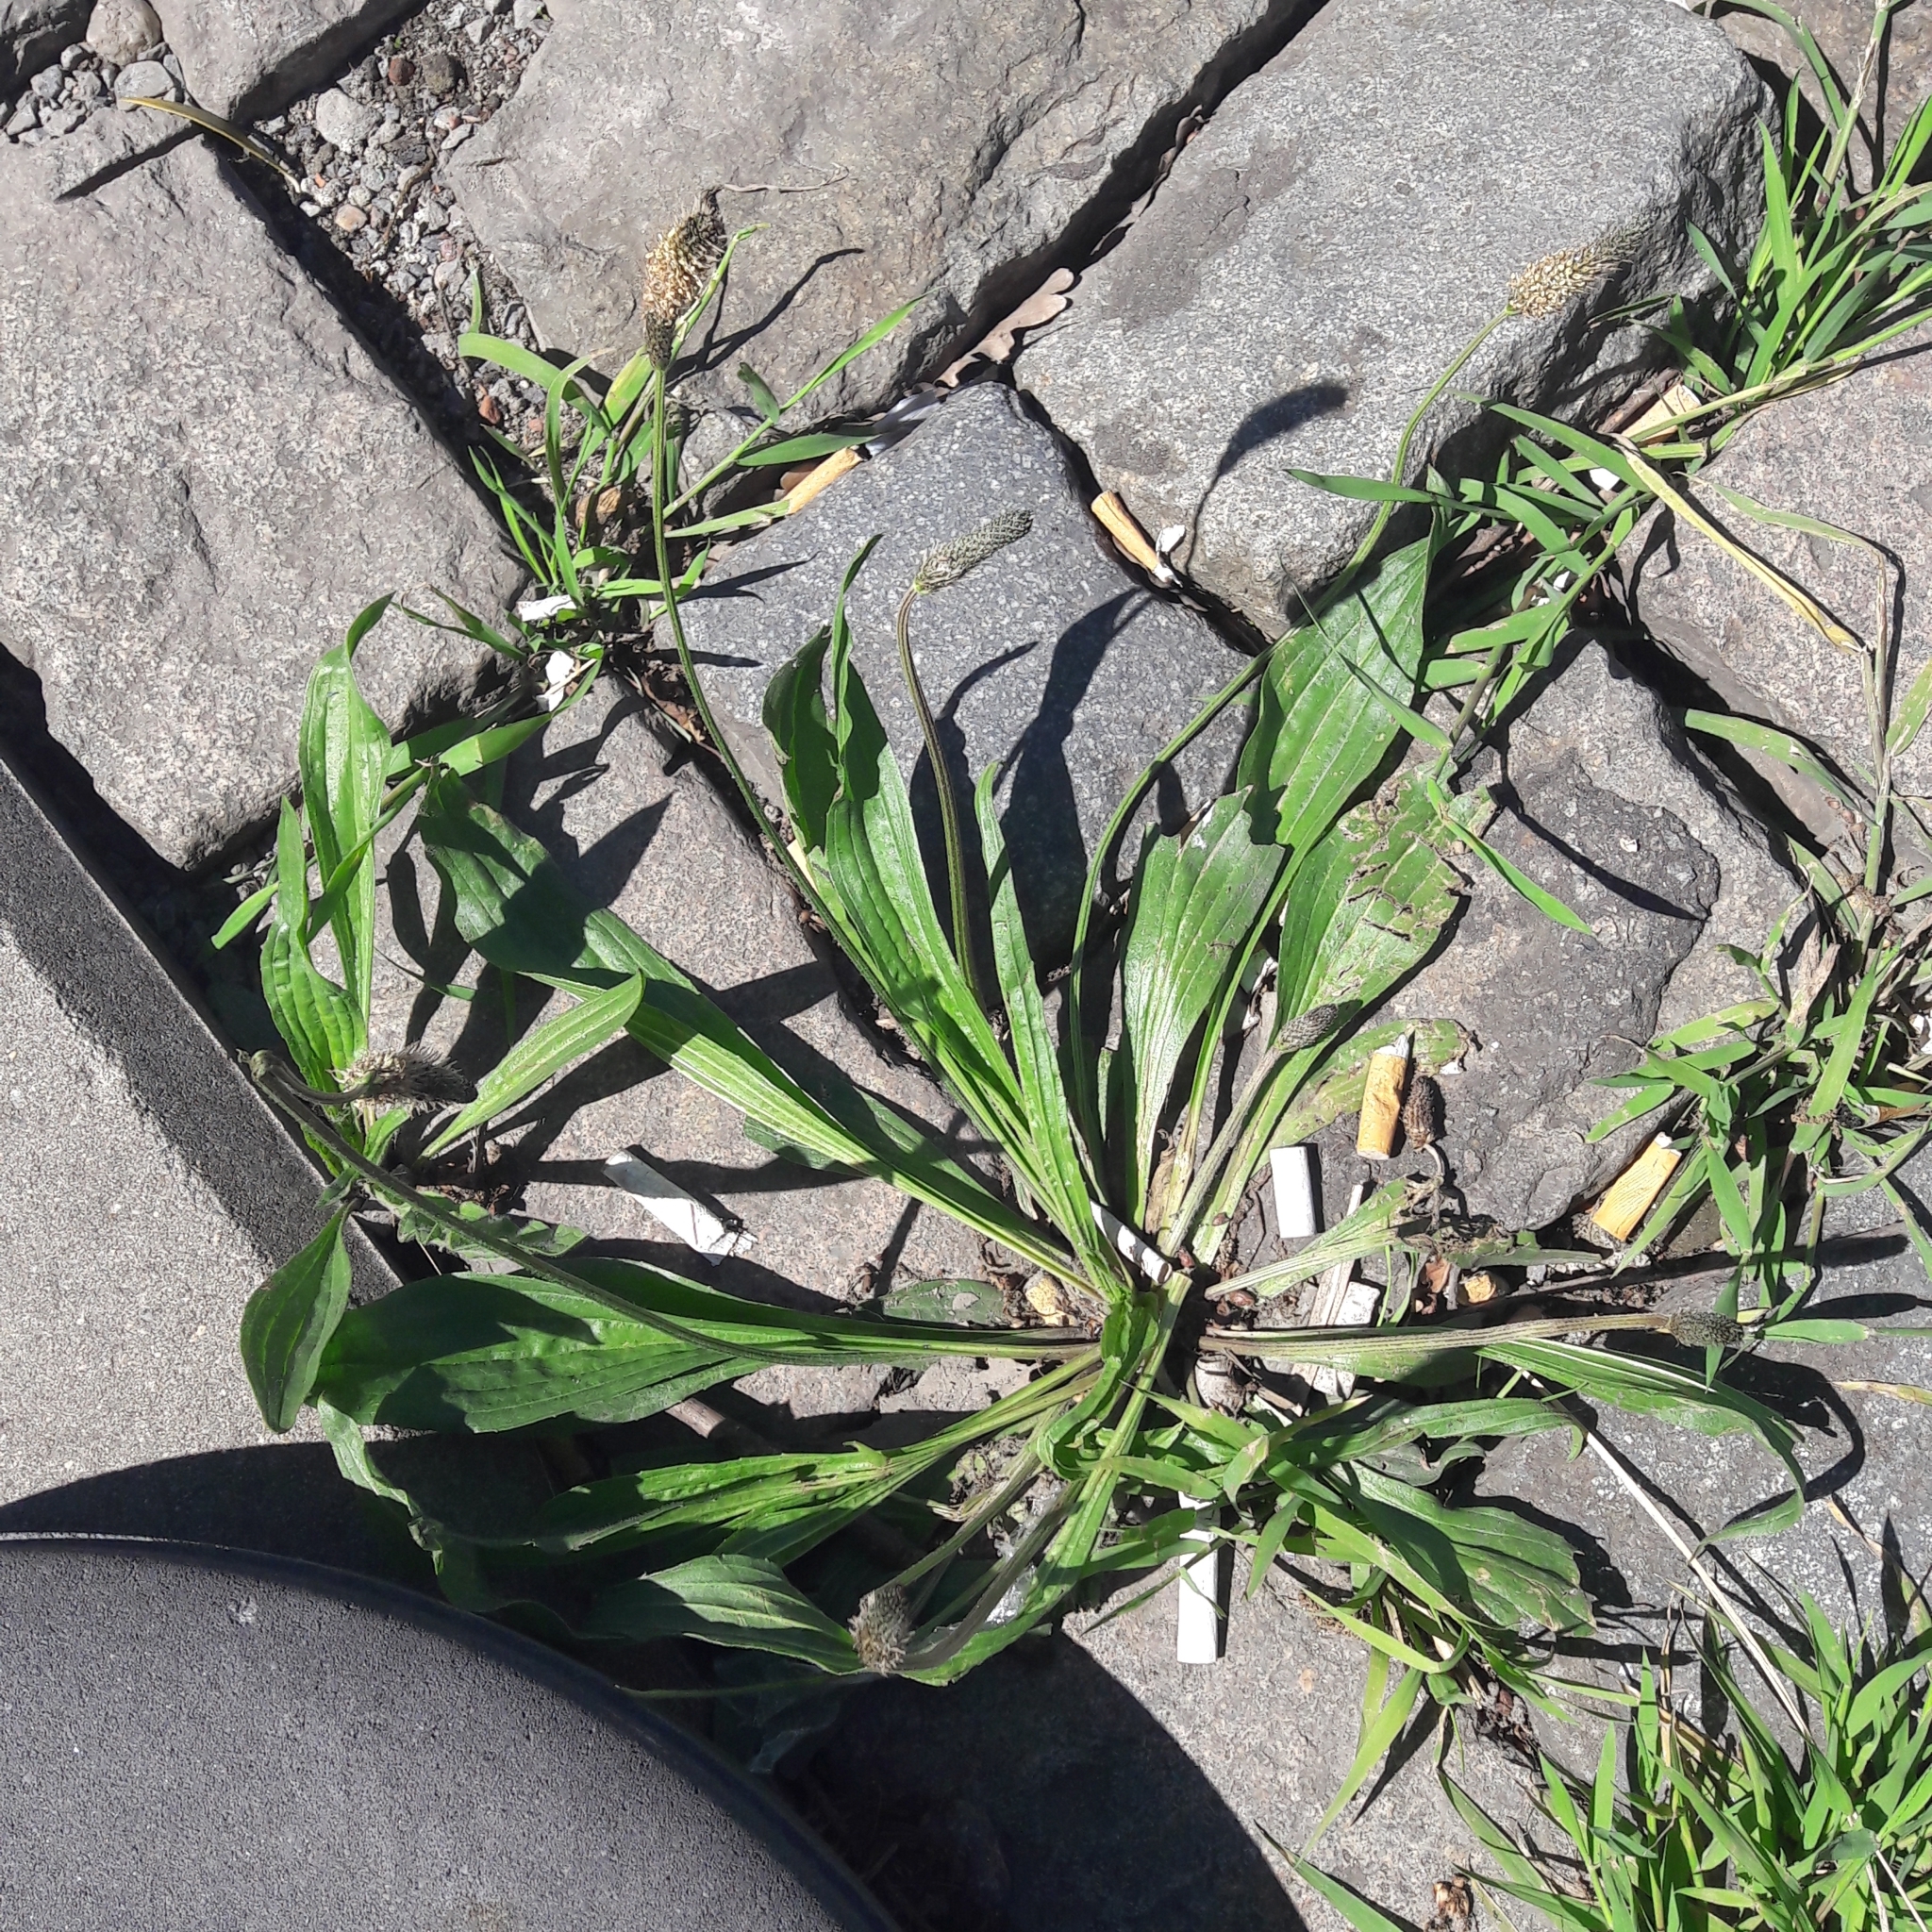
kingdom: Plantae
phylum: Tracheophyta
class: Magnoliopsida
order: Lamiales
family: Plantaginaceae
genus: Plantago
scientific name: Plantago lanceolata
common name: Ribwort plantain
